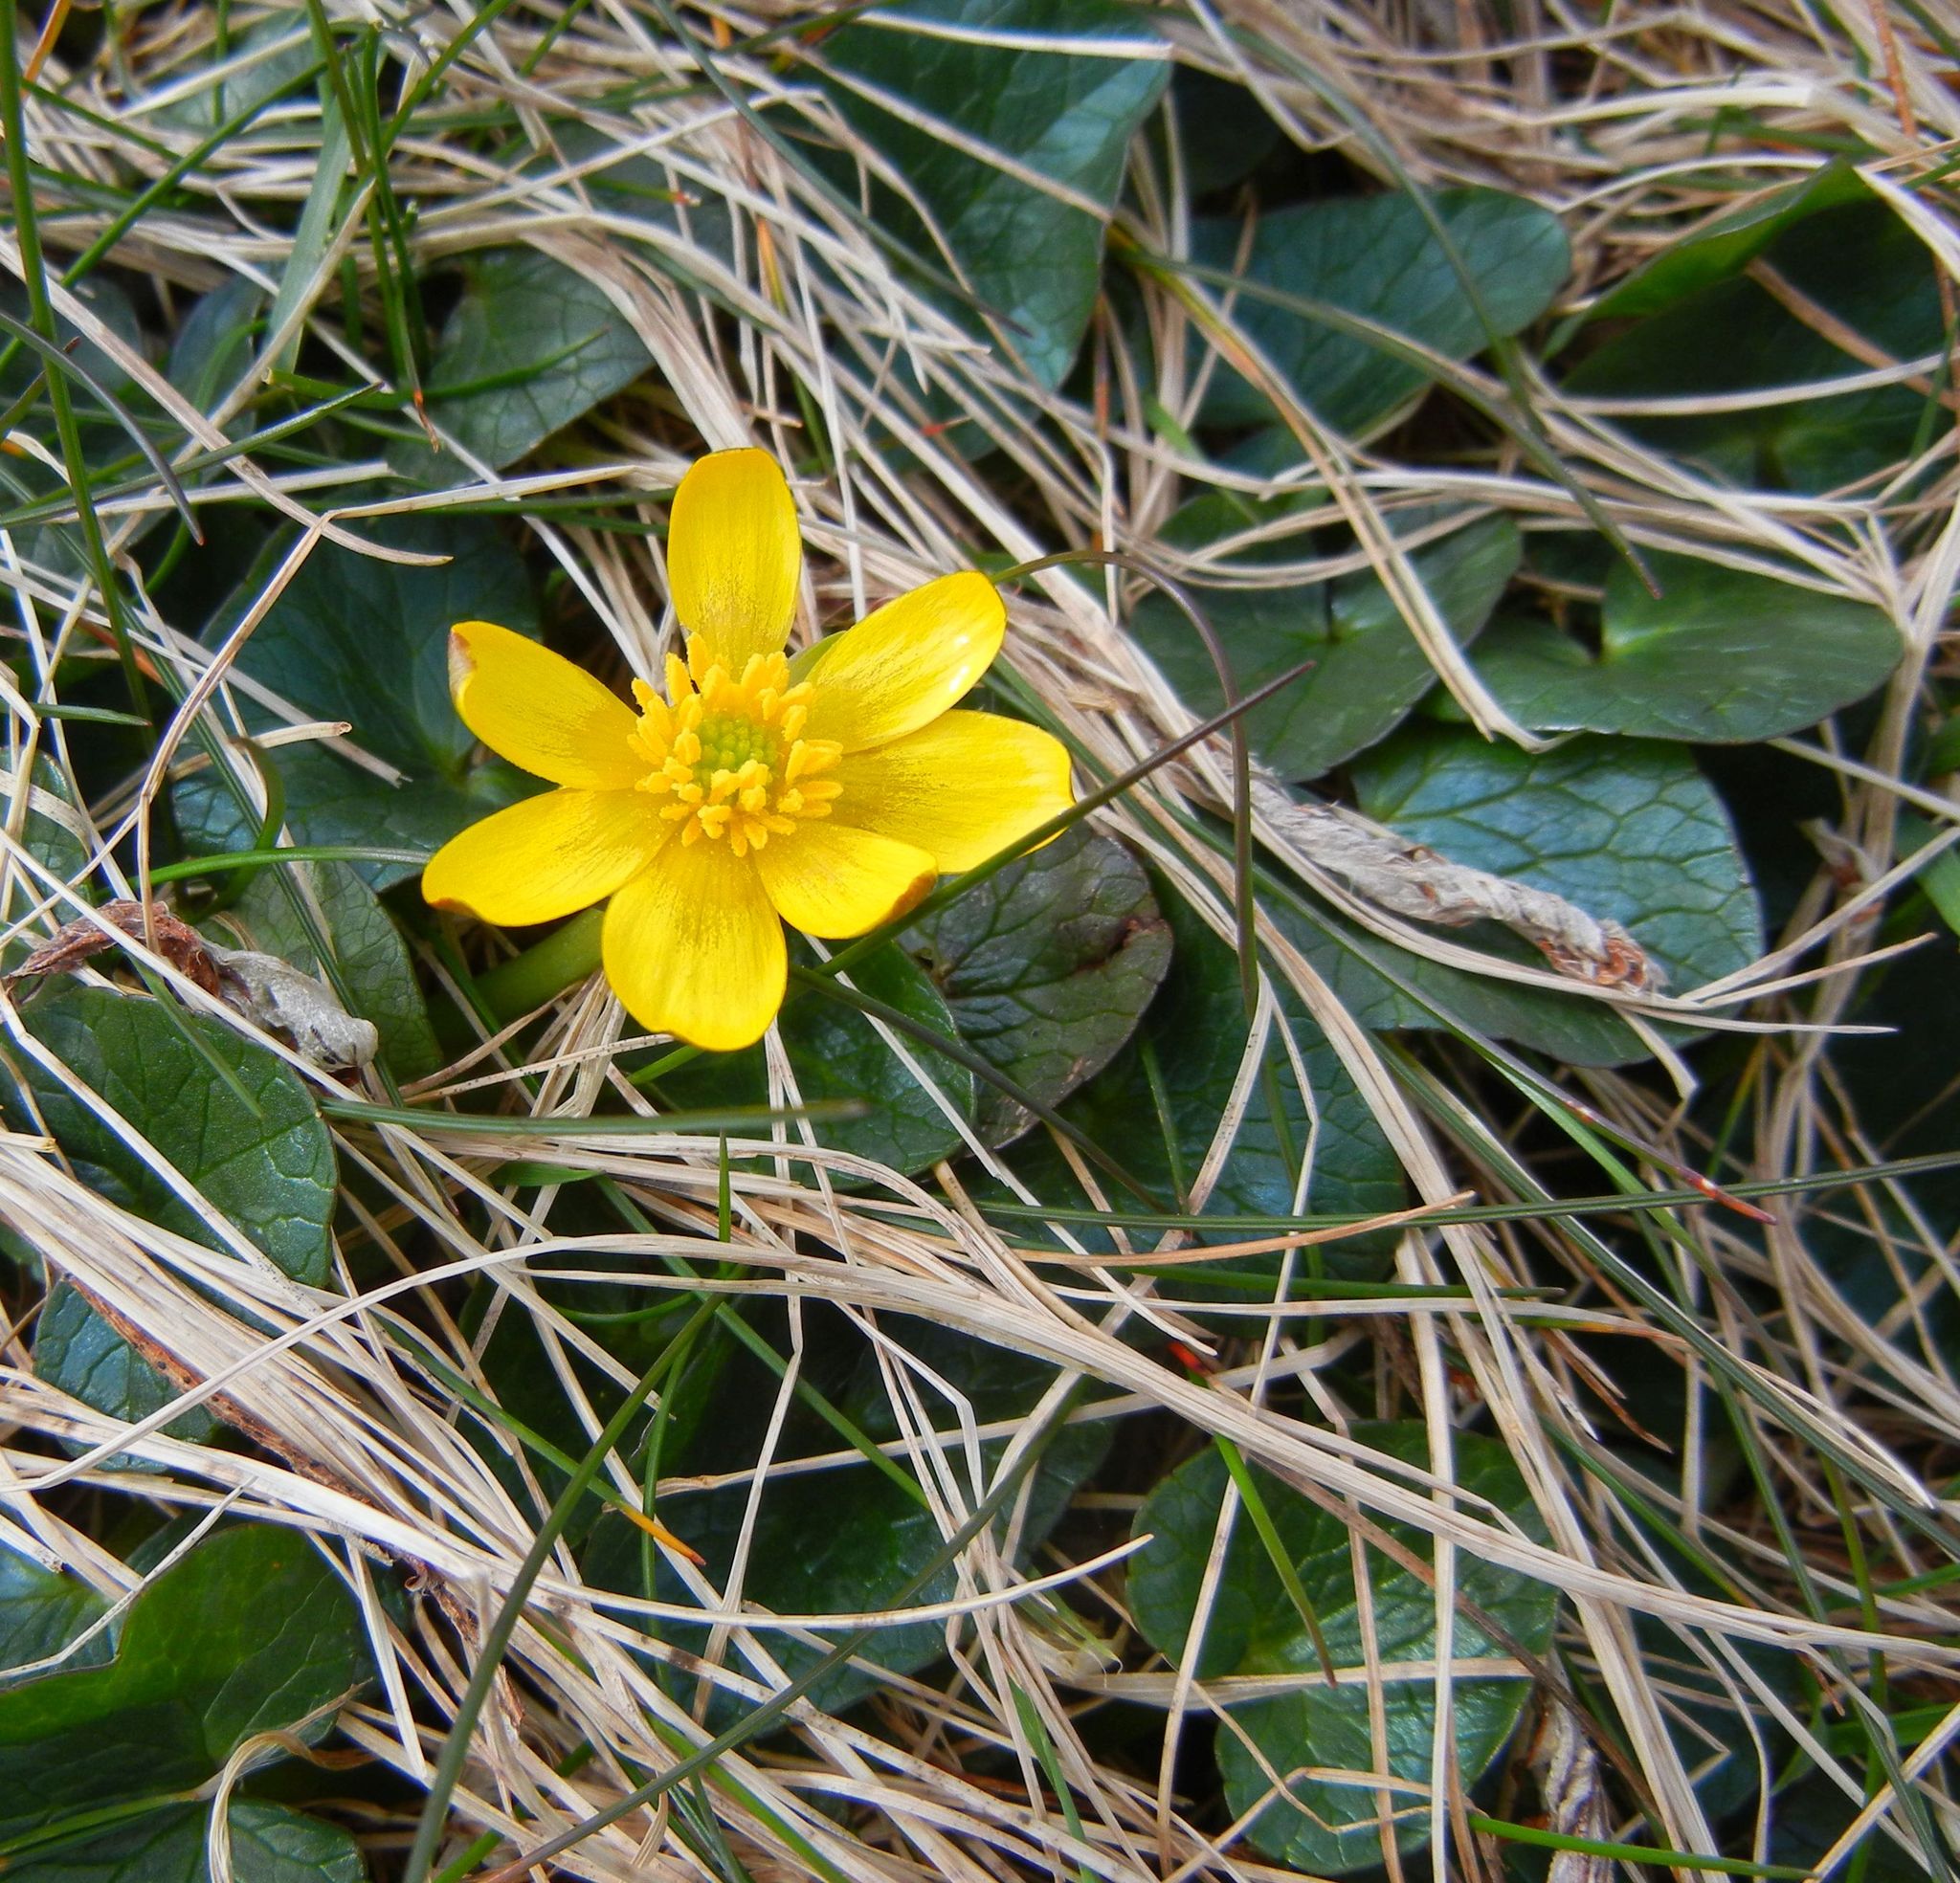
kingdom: Plantae
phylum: Tracheophyta
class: Magnoliopsida
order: Ranunculales
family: Ranunculaceae
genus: Ficaria
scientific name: Ficaria verna
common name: Lesser celandine
